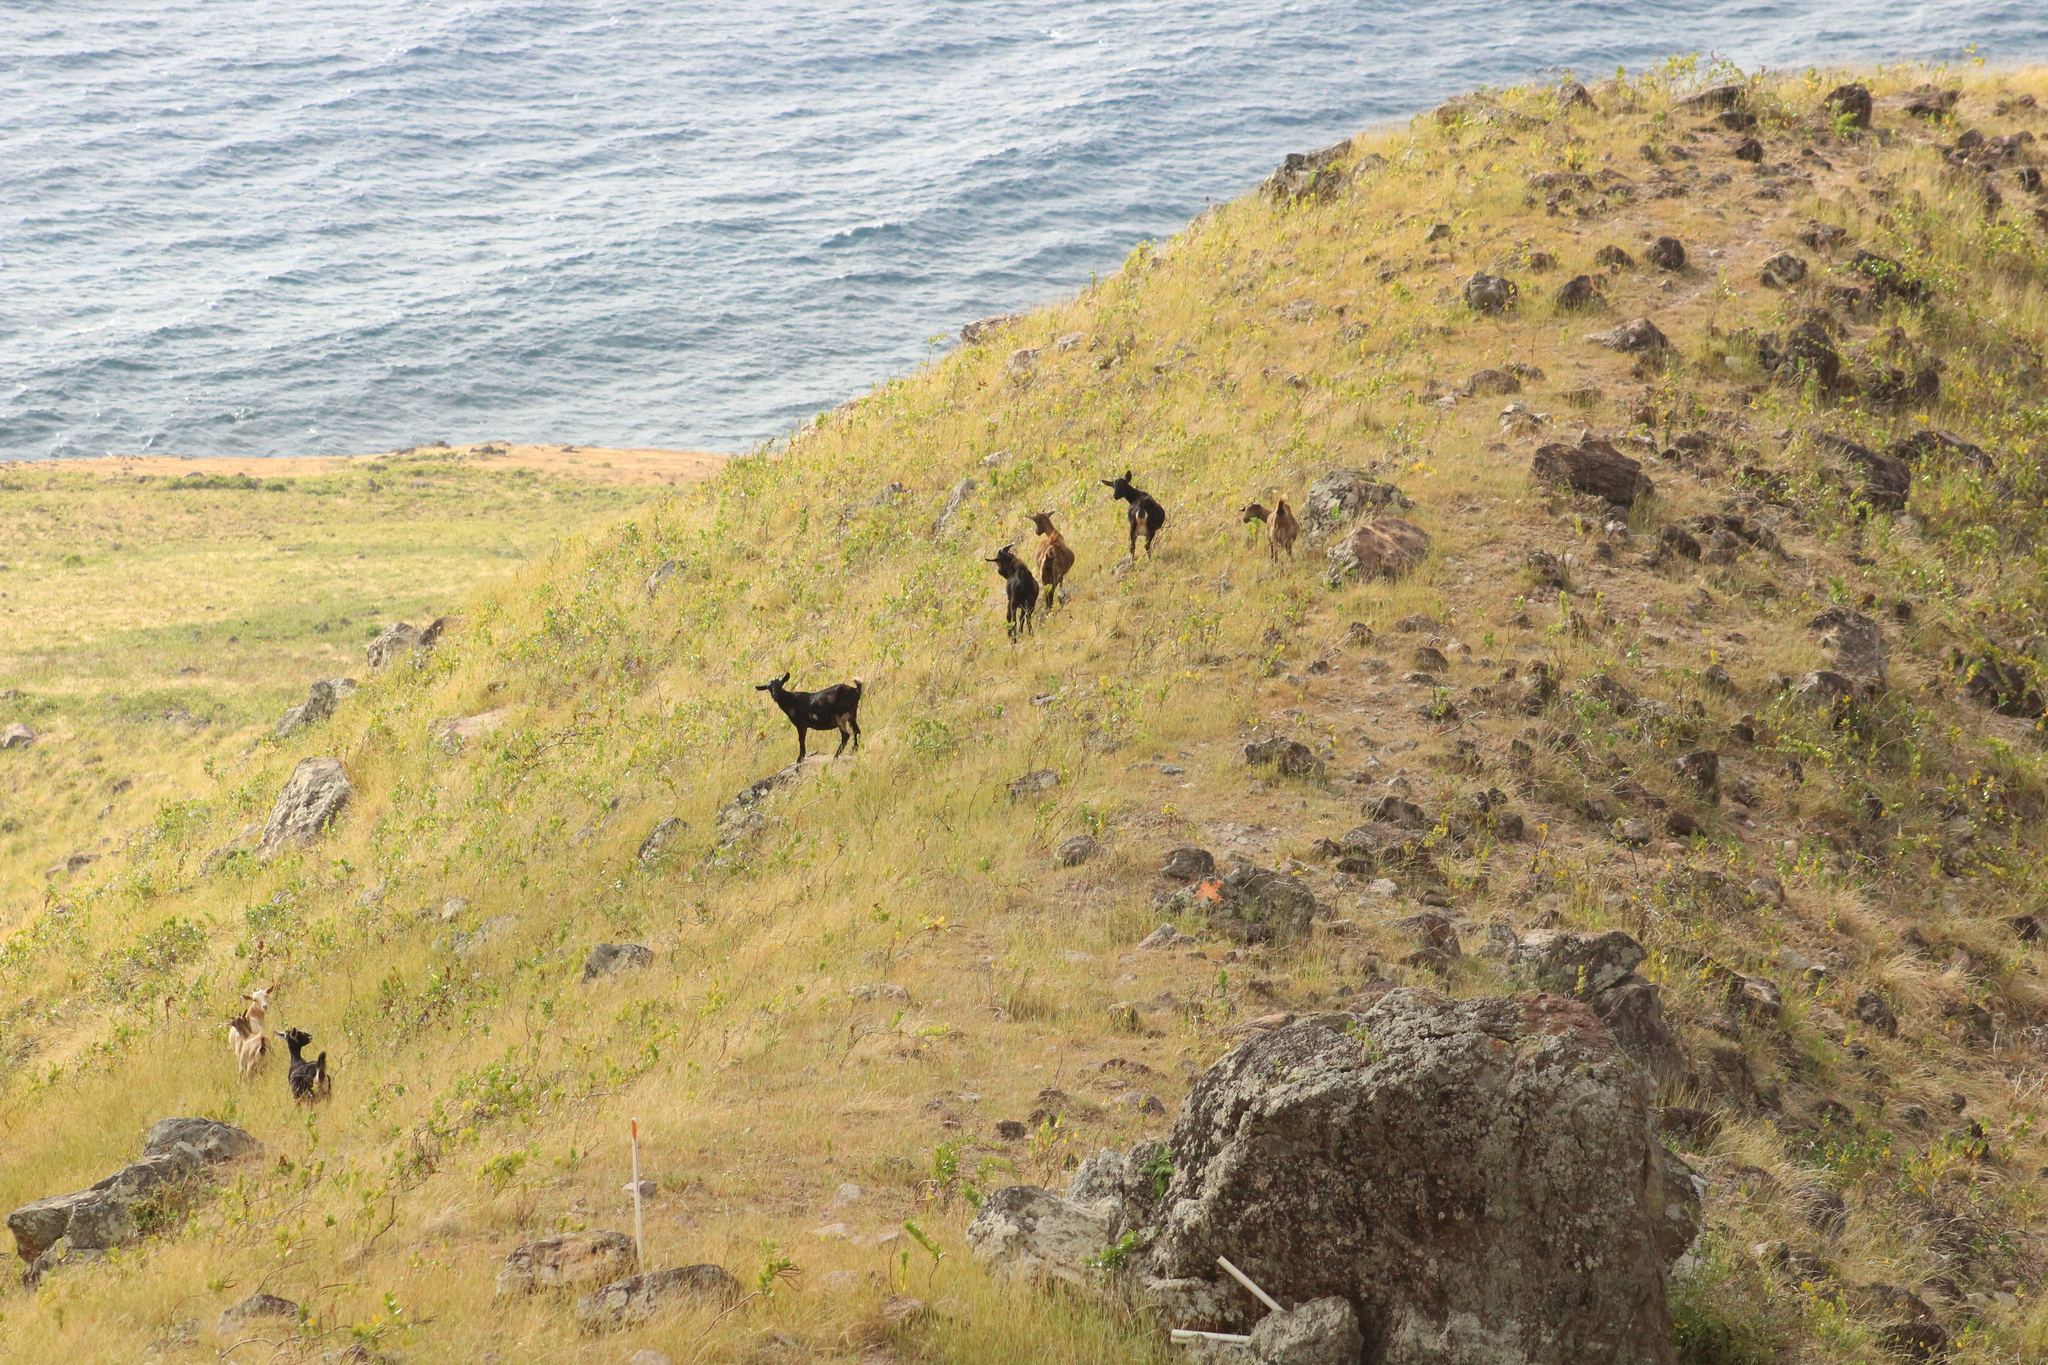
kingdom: Animalia
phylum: Chordata
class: Mammalia
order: Artiodactyla
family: Bovidae
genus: Capra
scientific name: Capra hircus
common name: Domestic goat
